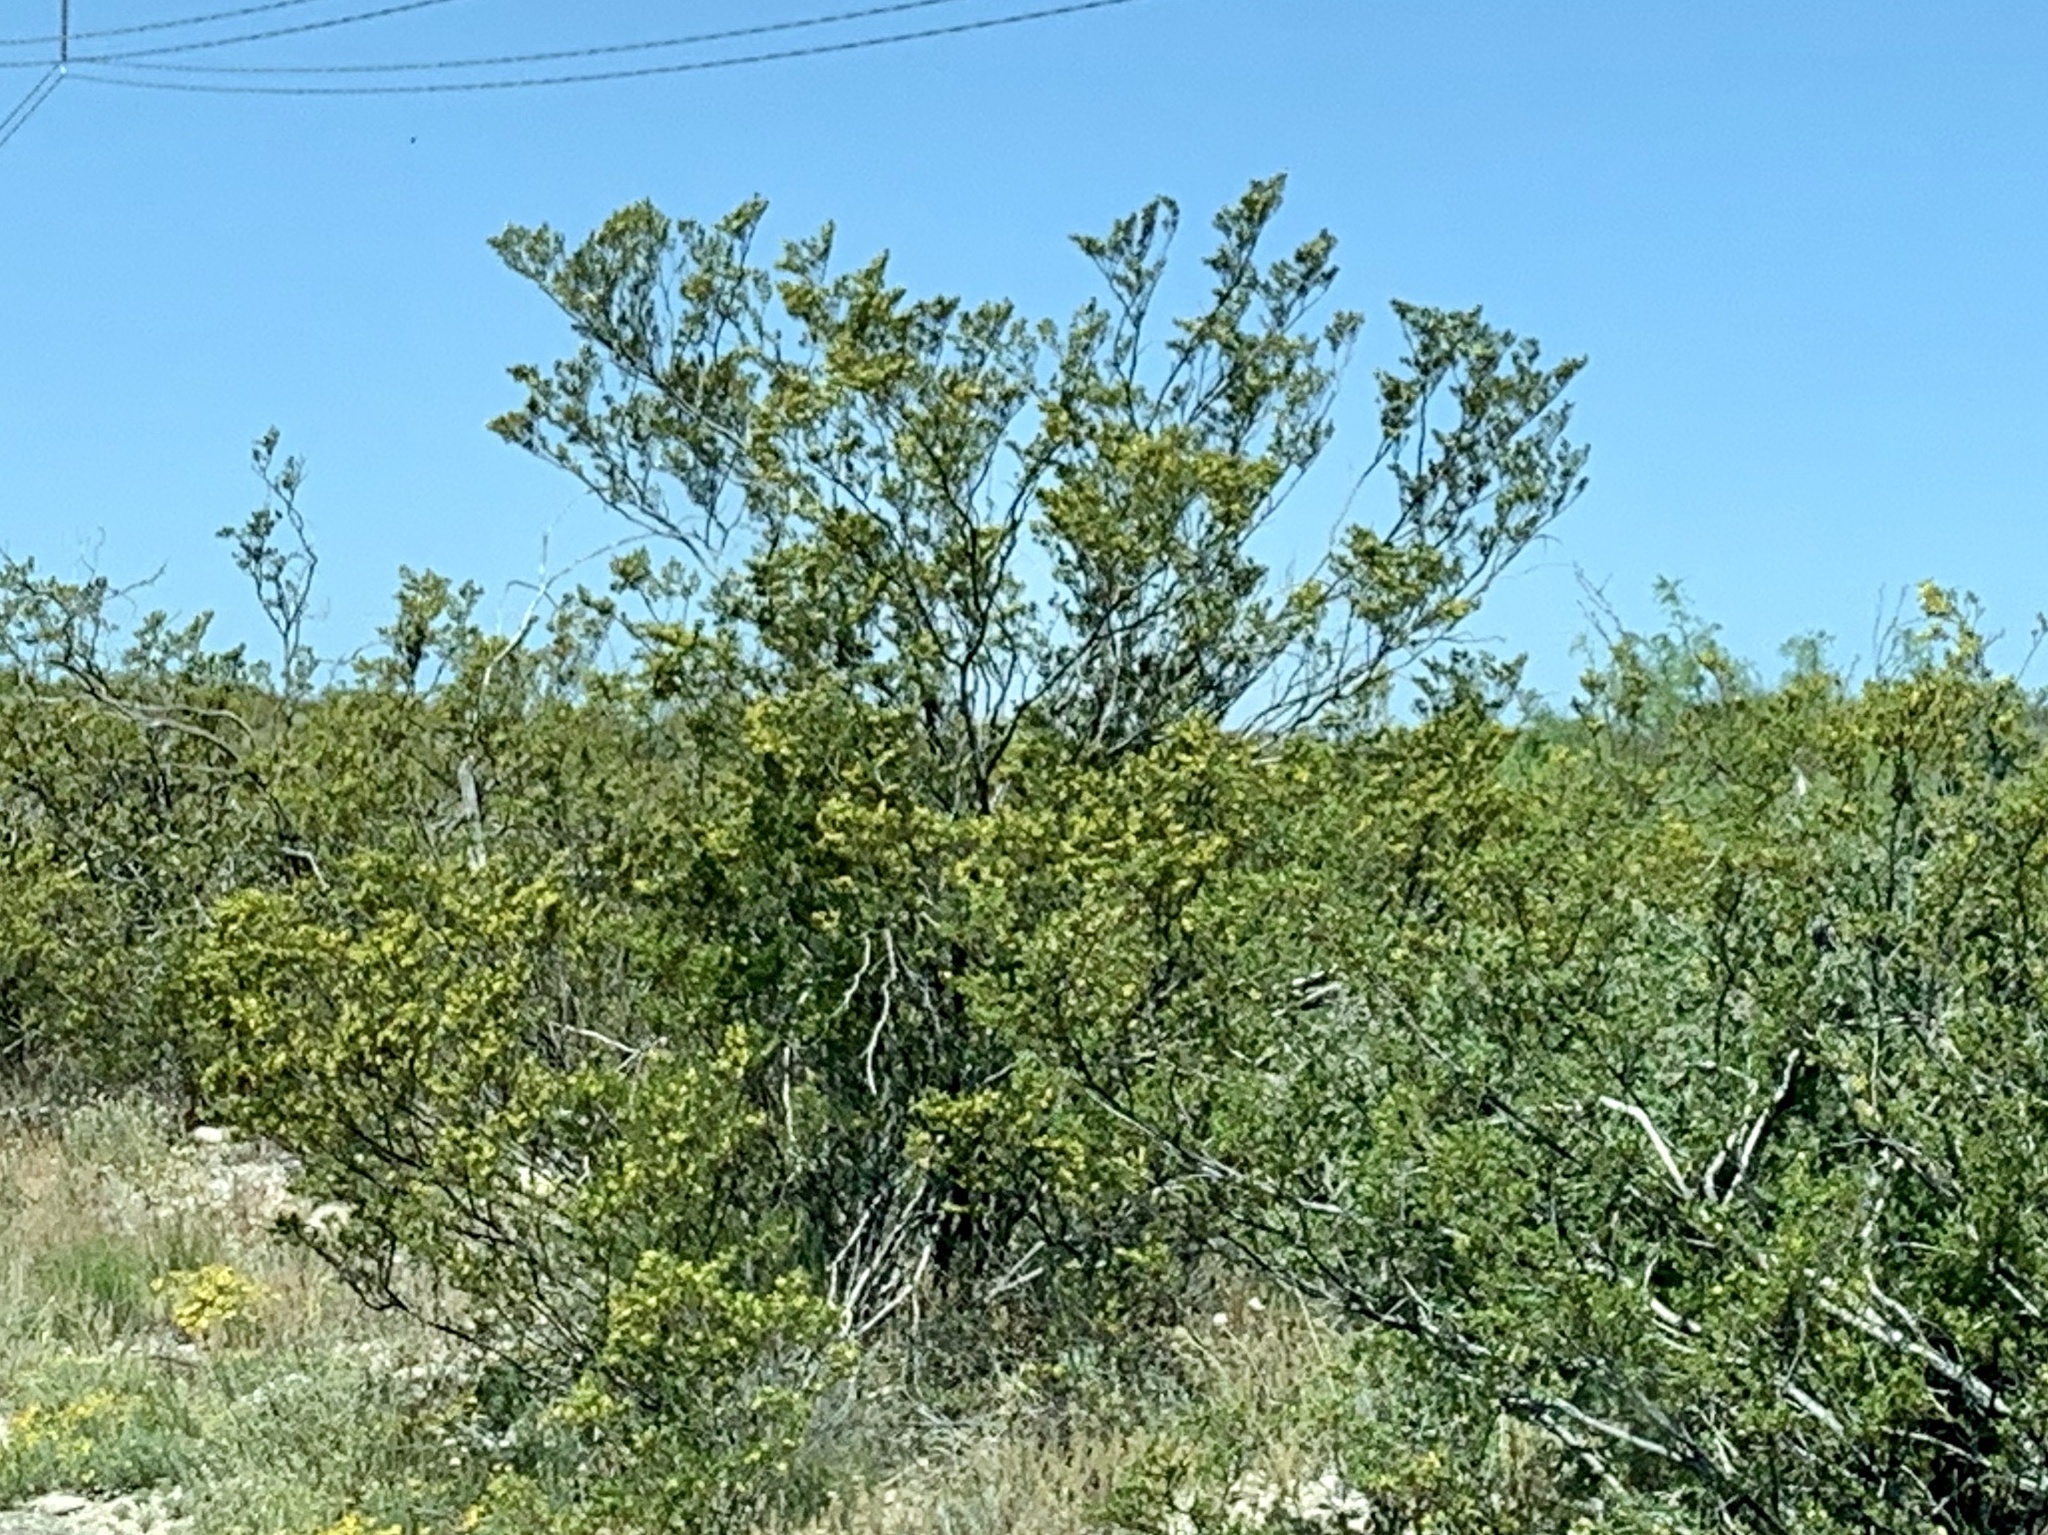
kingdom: Plantae
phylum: Tracheophyta
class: Magnoliopsida
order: Zygophyllales
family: Zygophyllaceae
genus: Larrea
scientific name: Larrea tridentata
